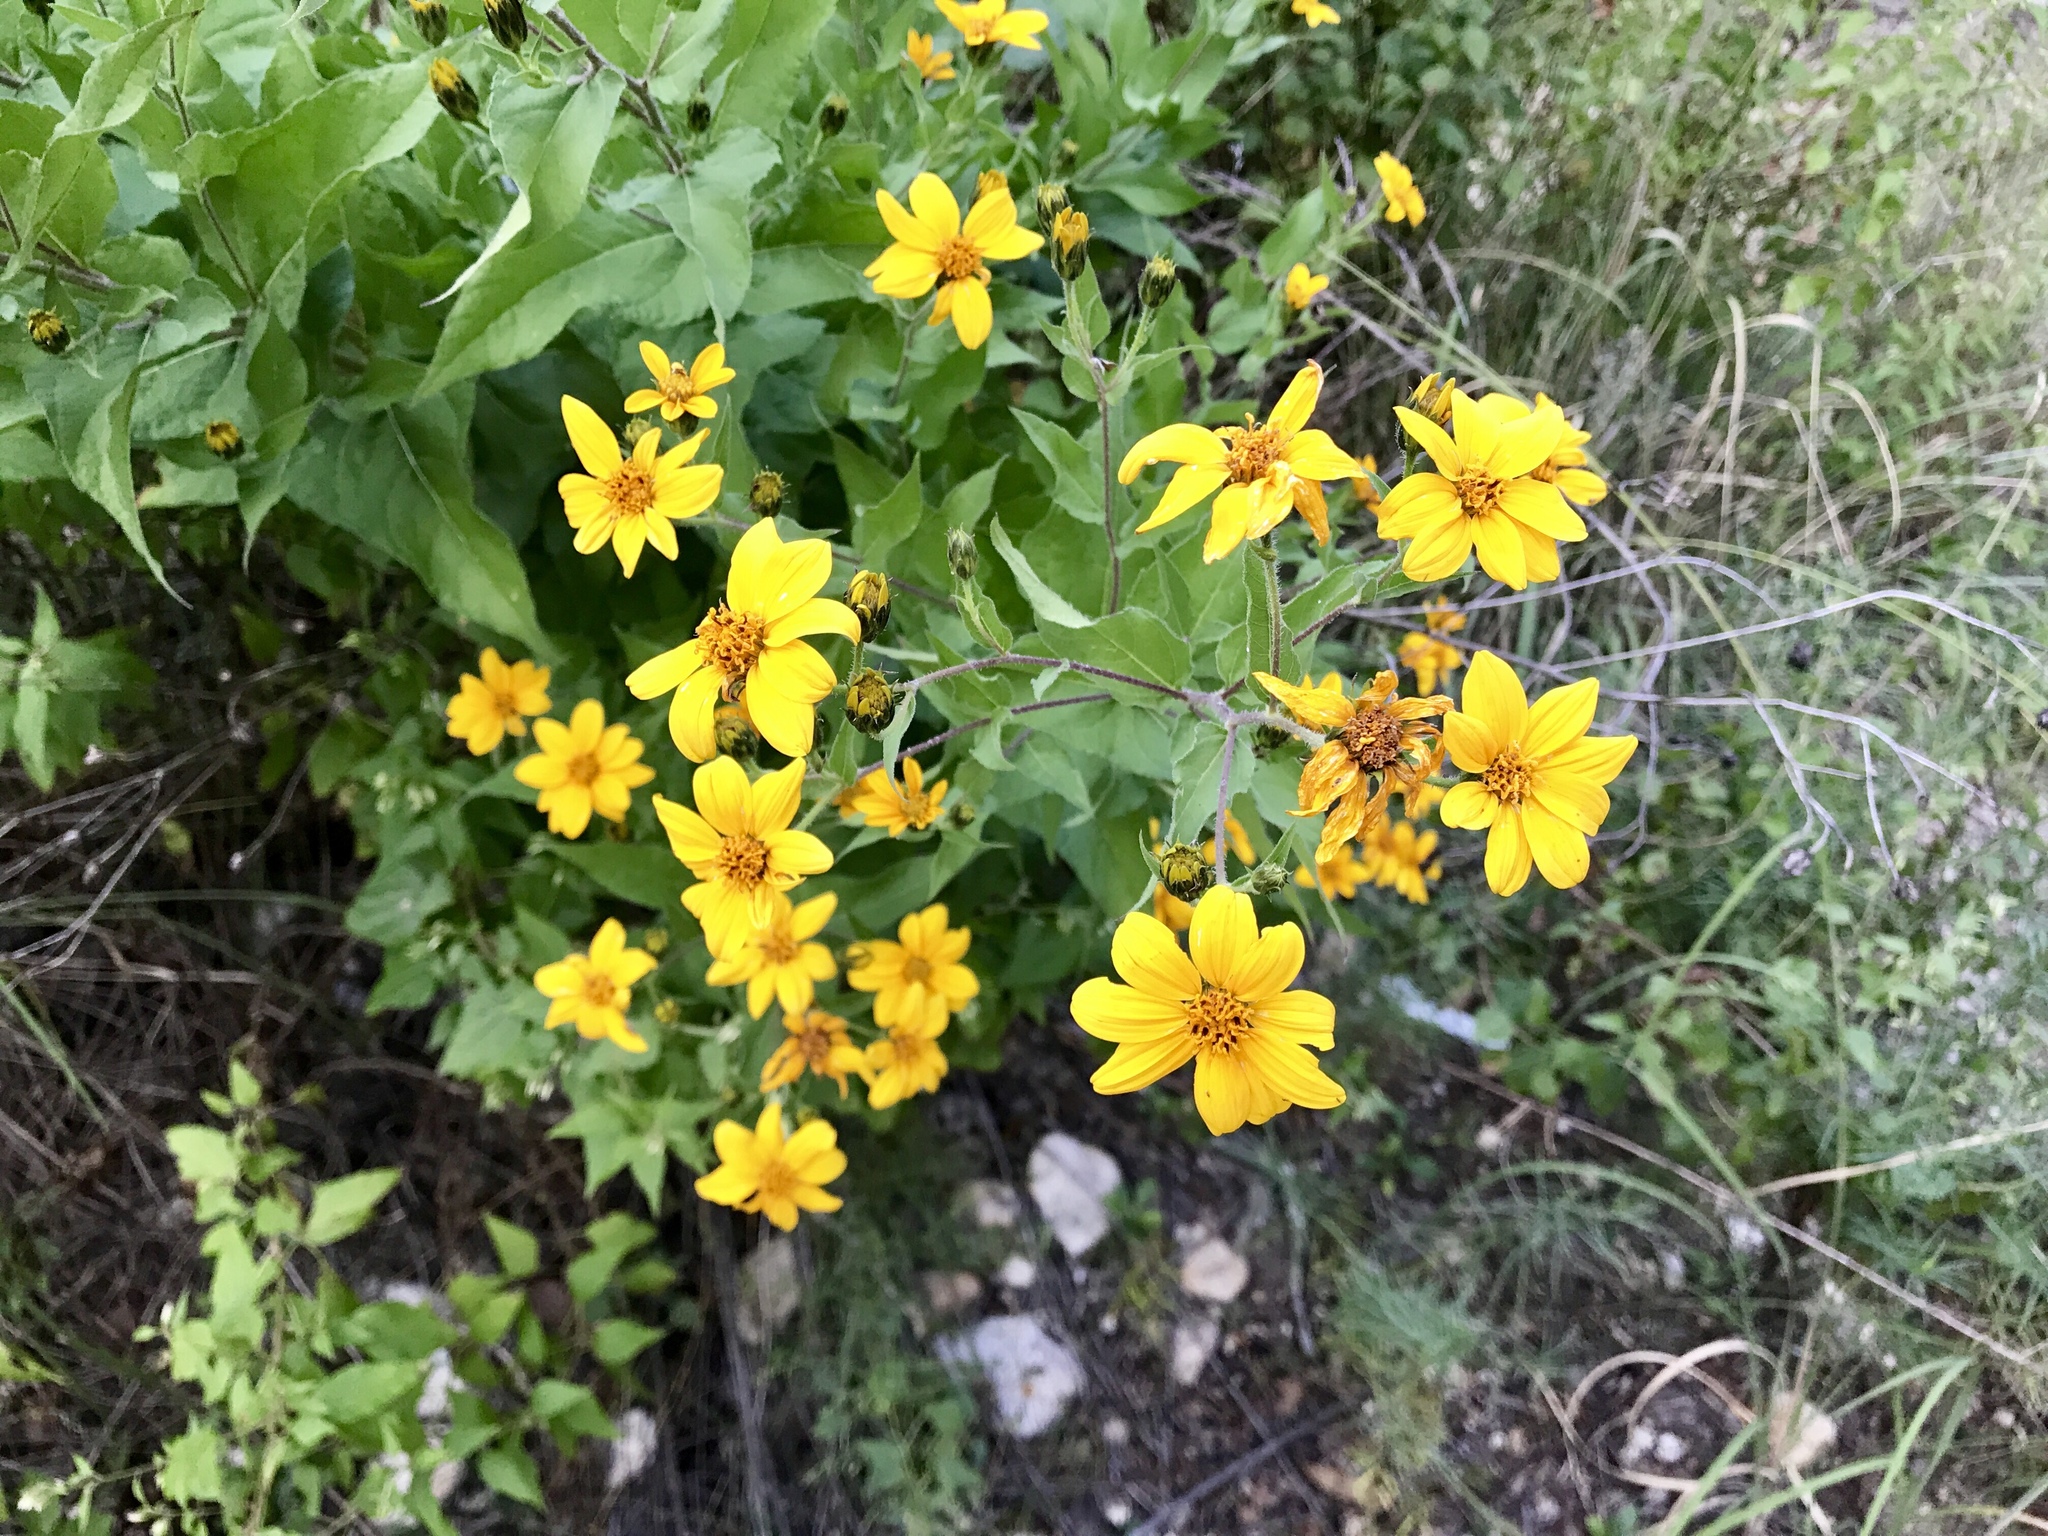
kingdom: Plantae
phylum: Tracheophyta
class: Magnoliopsida
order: Asterales
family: Asteraceae
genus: Aldama
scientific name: Aldama cordifolia
